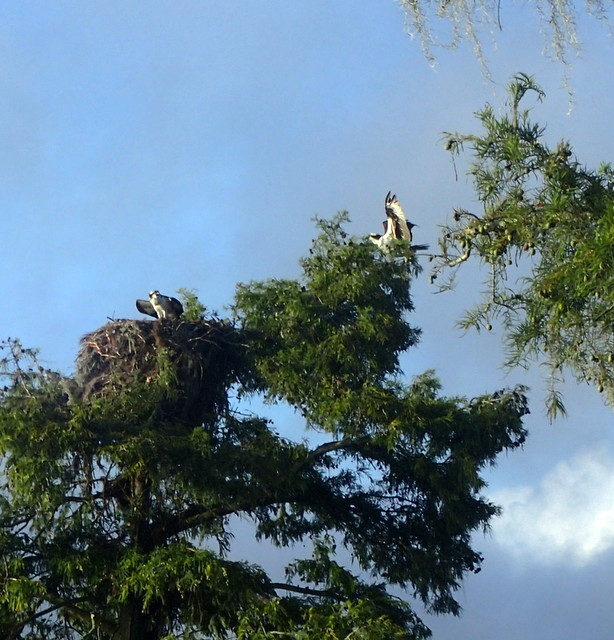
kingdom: Animalia
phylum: Chordata
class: Aves
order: Accipitriformes
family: Pandionidae
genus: Pandion
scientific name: Pandion haliaetus
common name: Osprey
